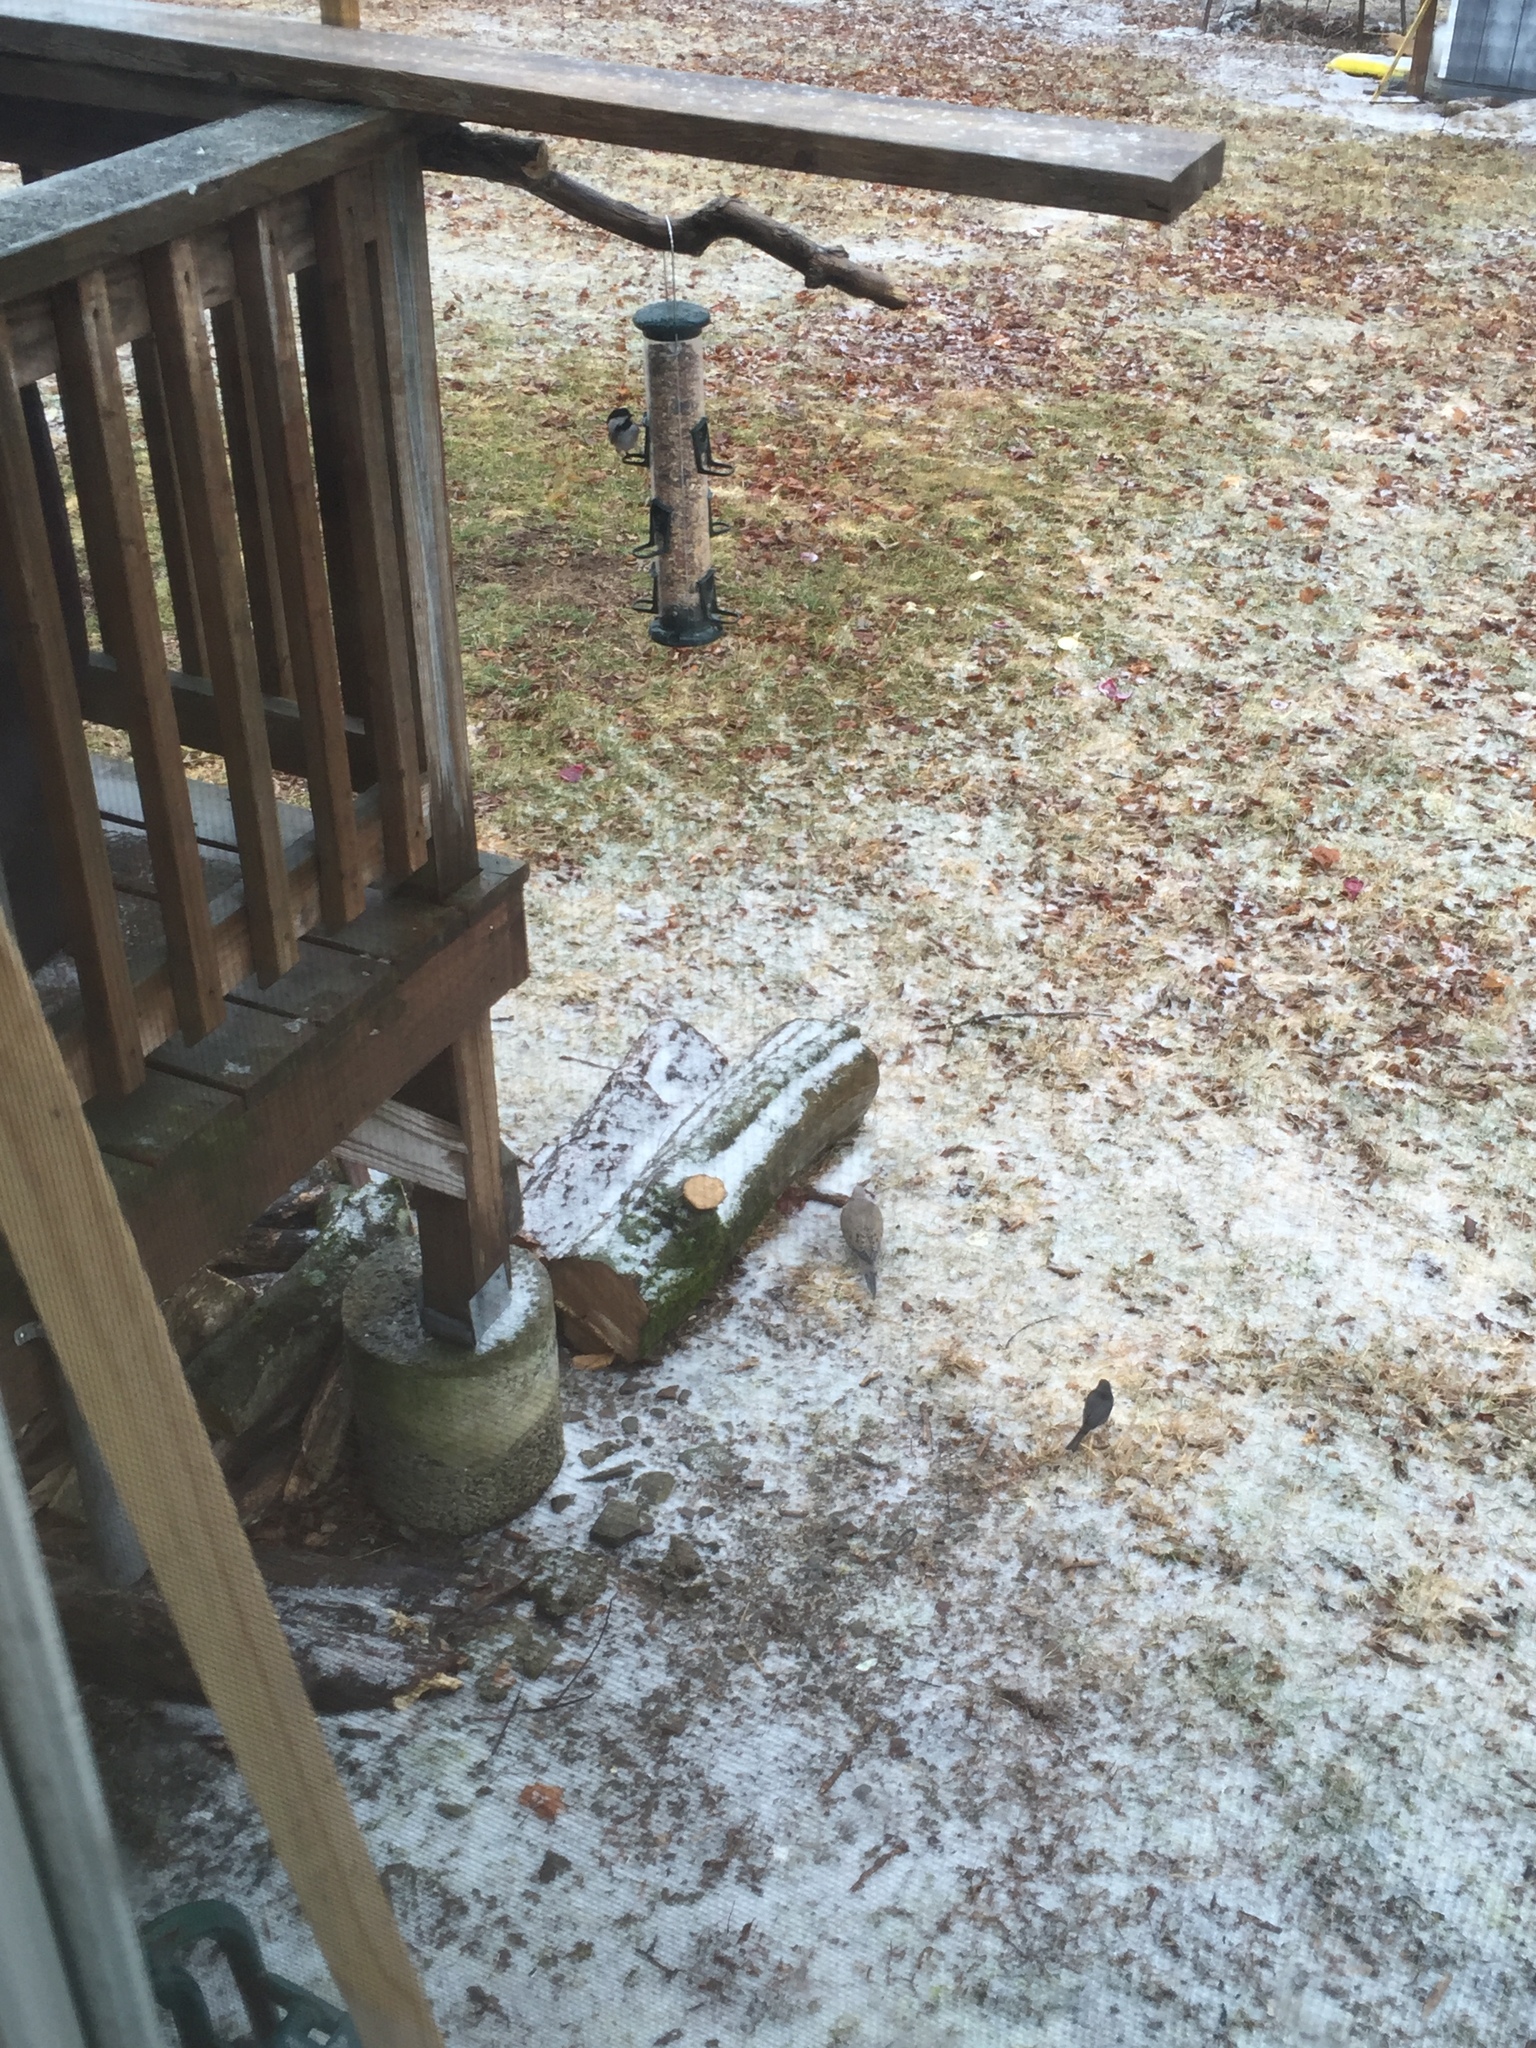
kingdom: Animalia
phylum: Chordata
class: Aves
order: Passeriformes
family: Paridae
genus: Poecile
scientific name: Poecile atricapillus
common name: Black-capped chickadee
